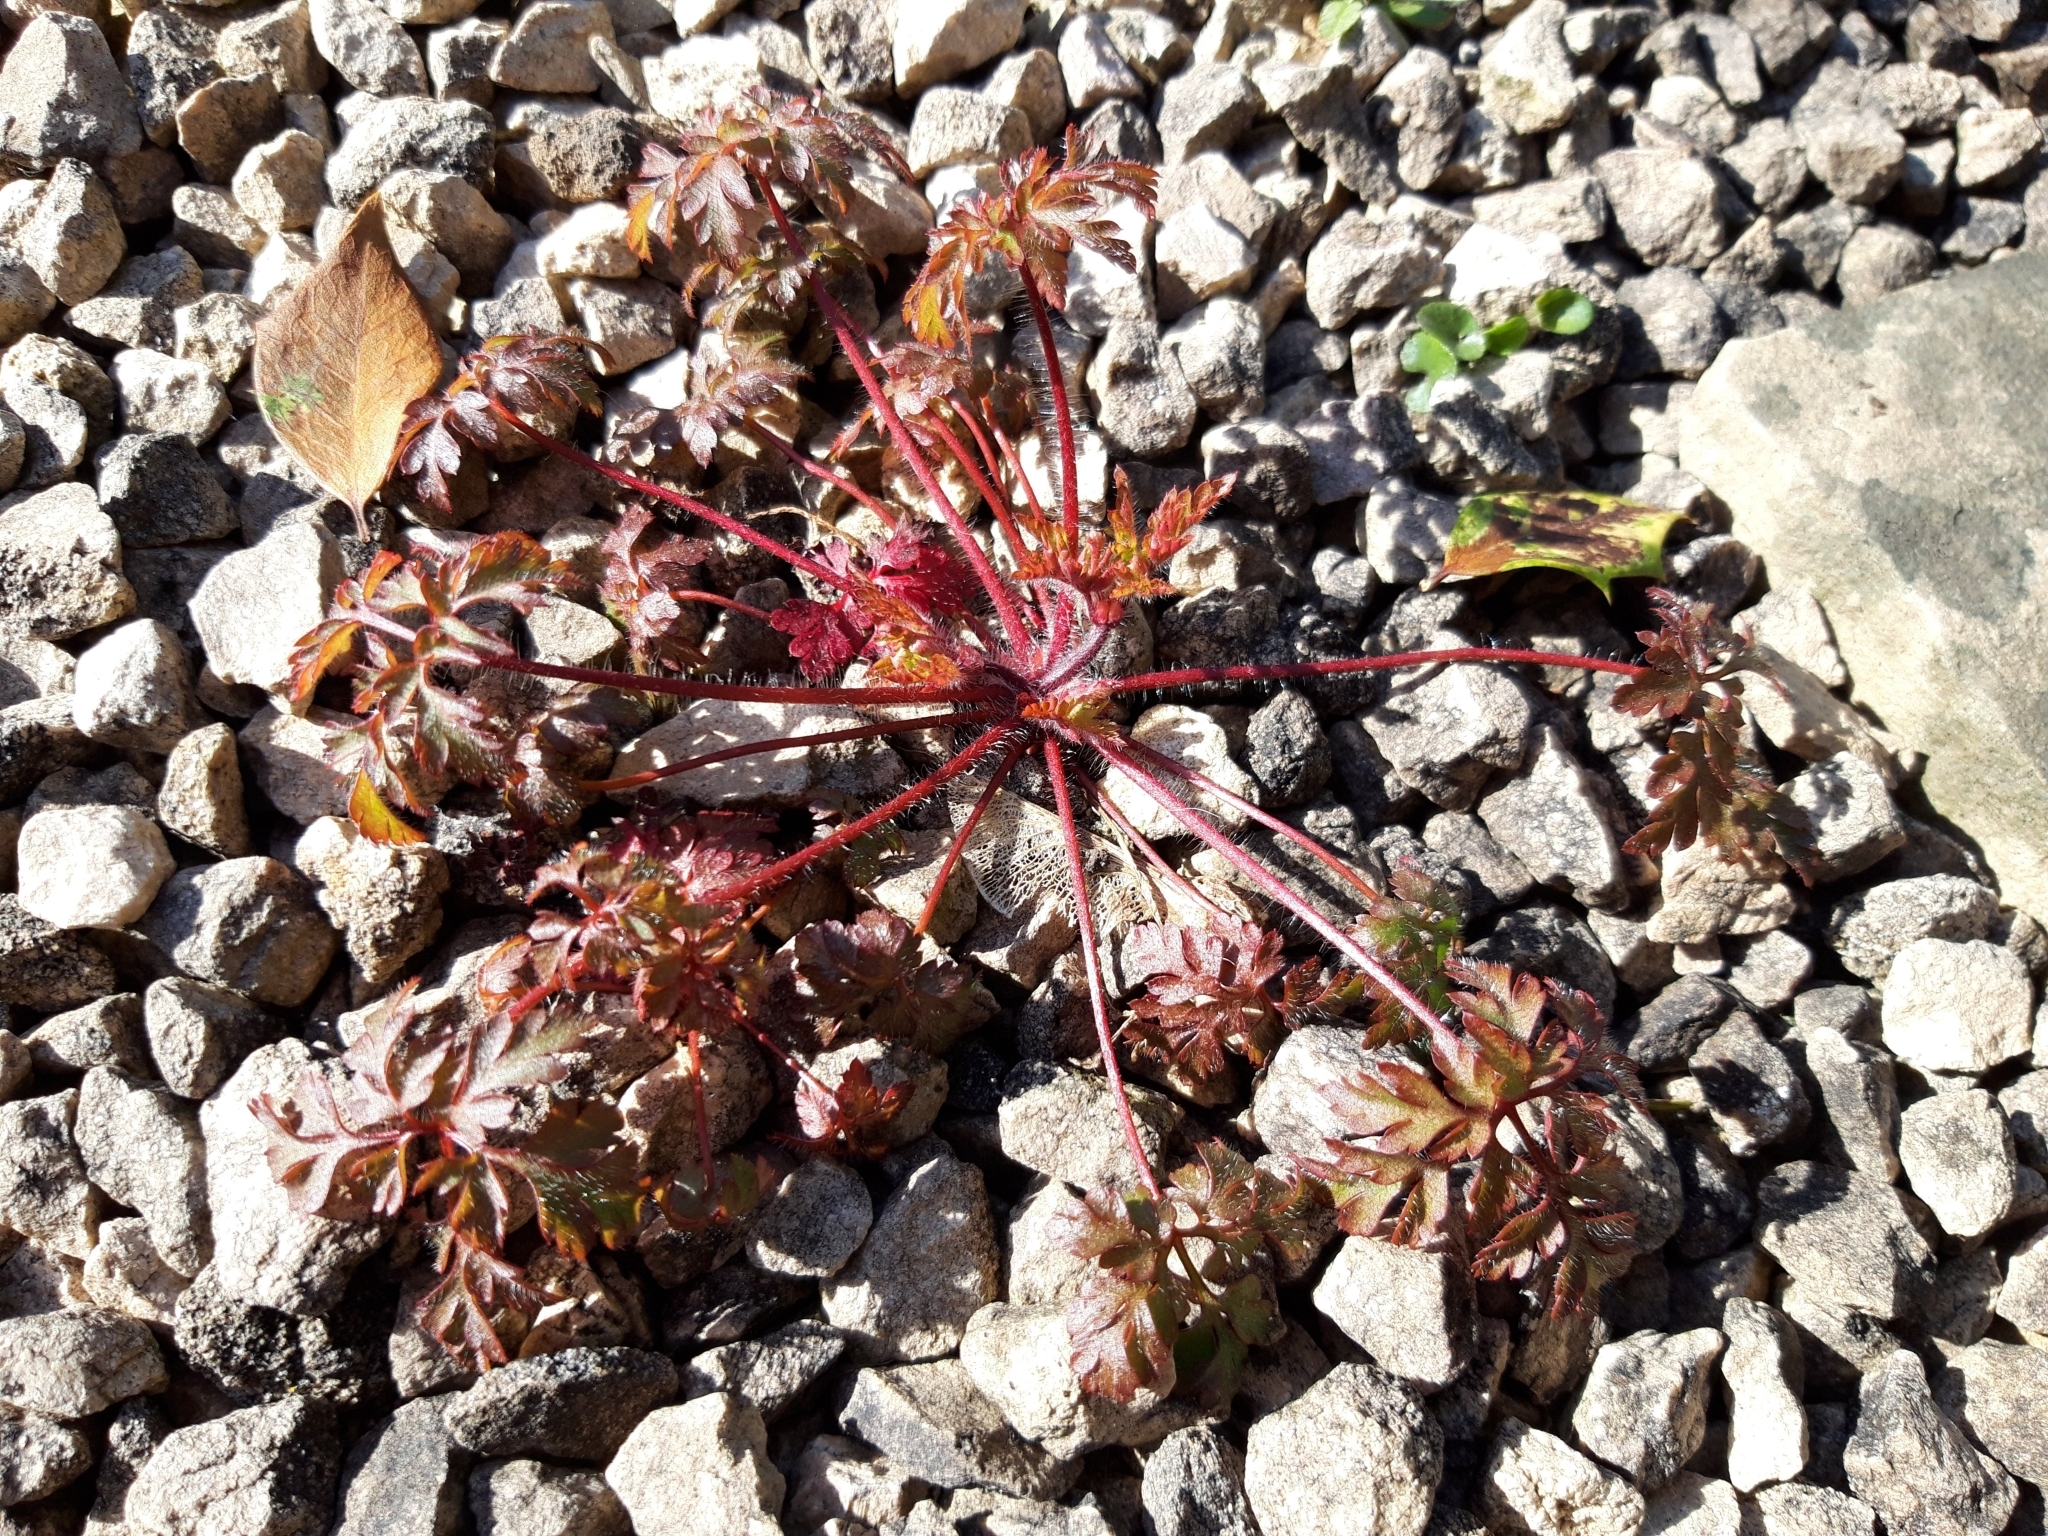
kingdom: Plantae
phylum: Tracheophyta
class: Magnoliopsida
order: Geraniales
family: Geraniaceae
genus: Geranium
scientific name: Geranium robertianum
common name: Herb-robert
